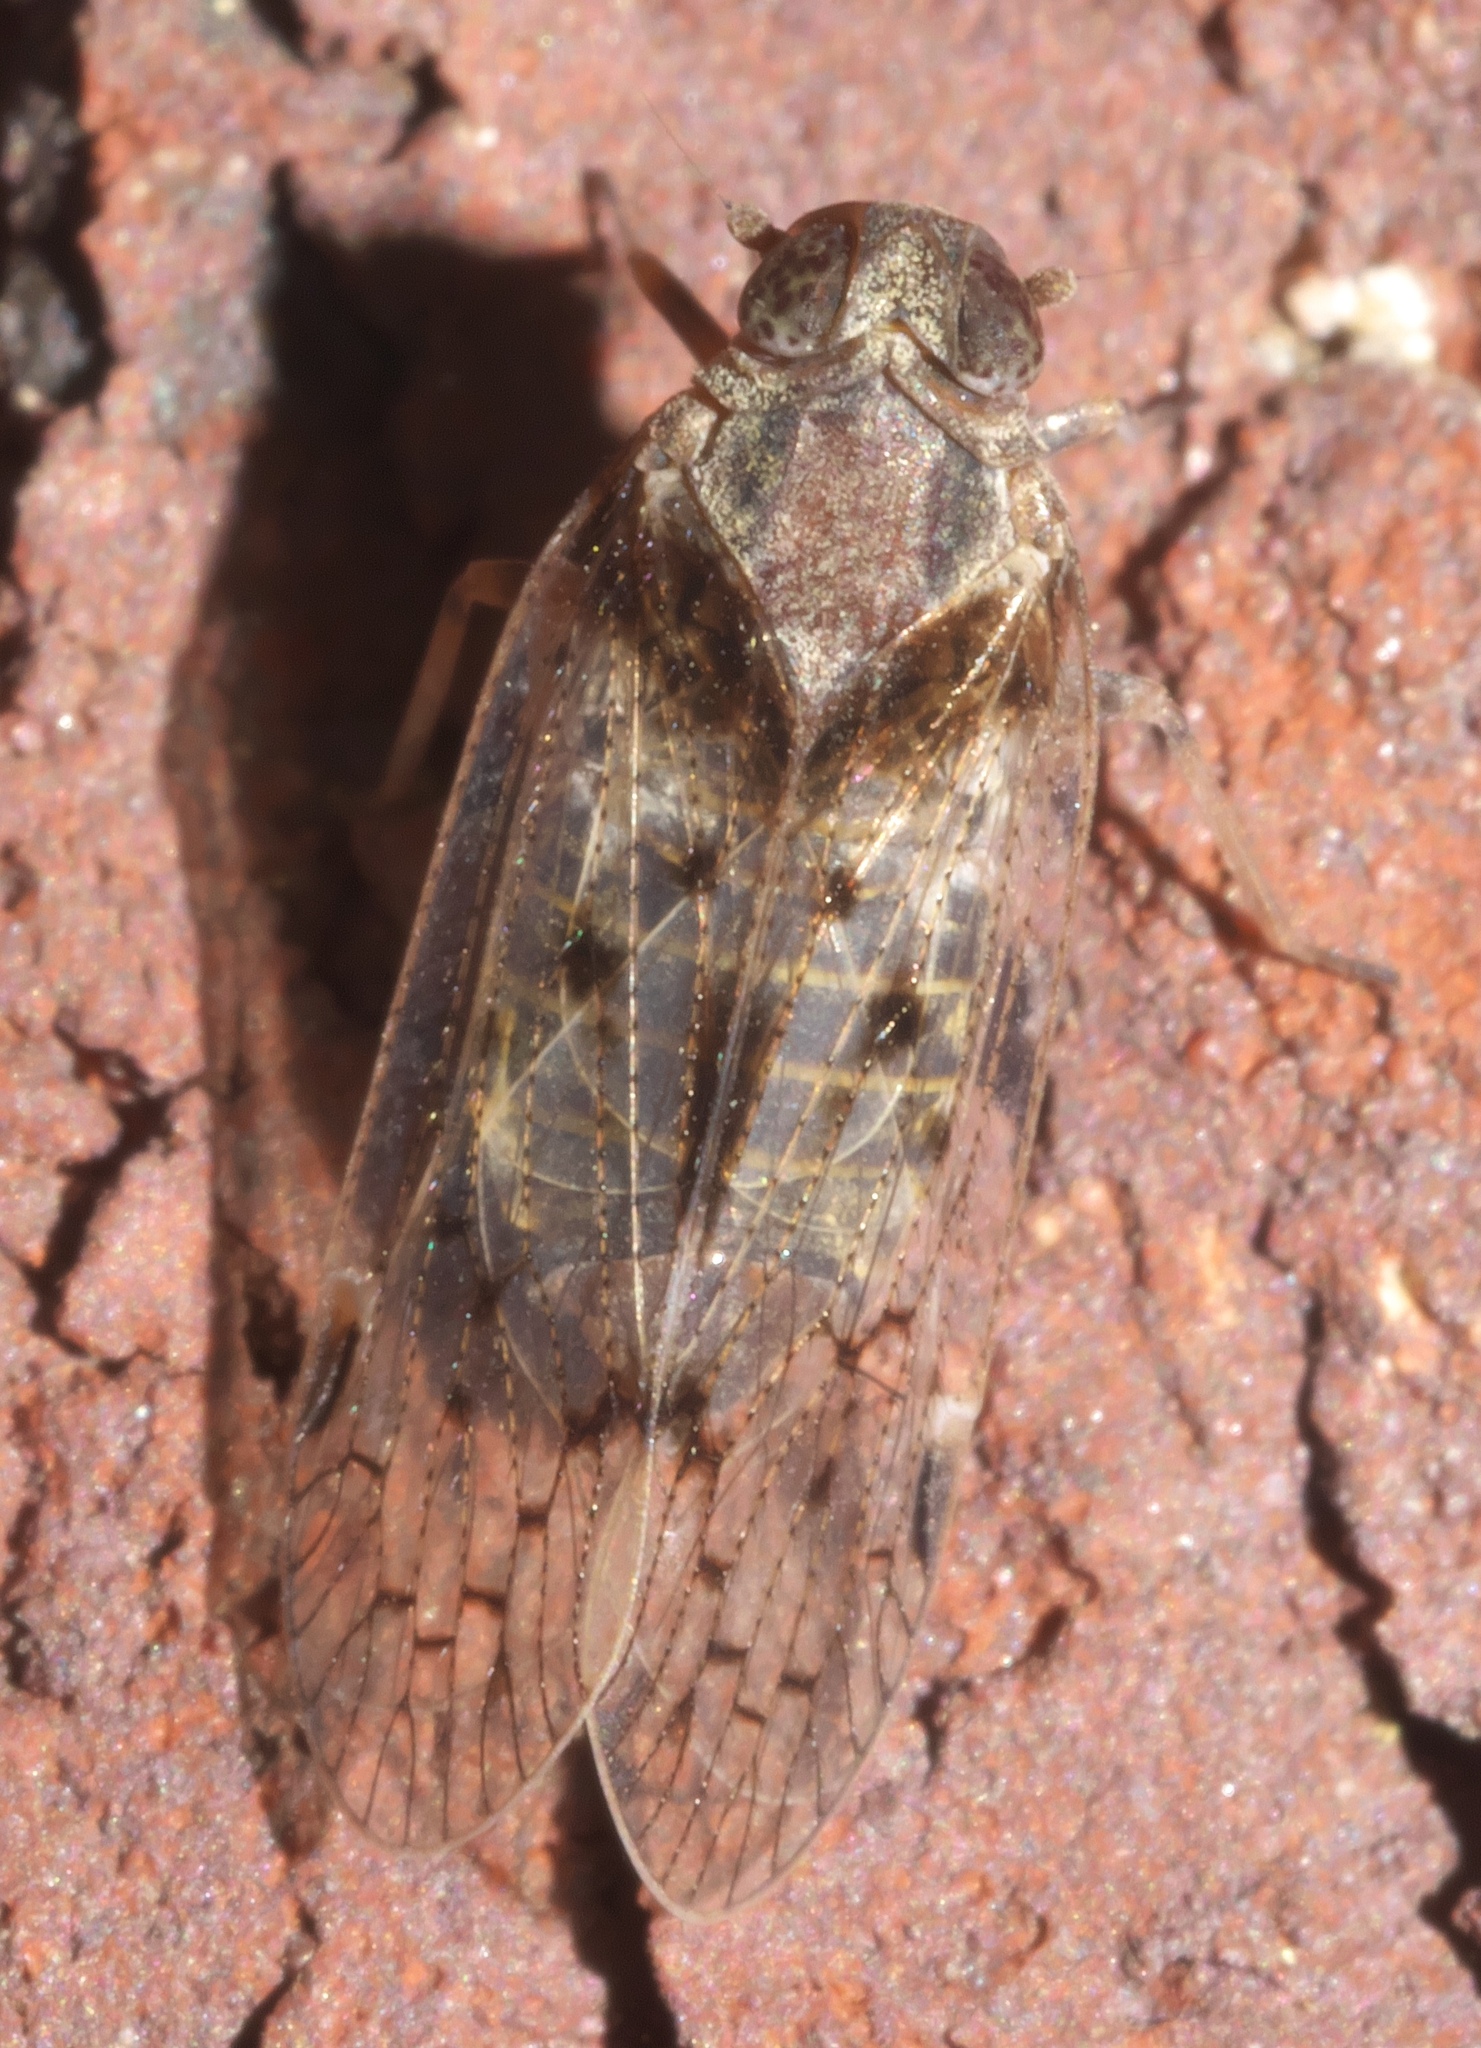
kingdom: Animalia
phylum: Arthropoda
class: Insecta
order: Hemiptera
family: Cixiidae
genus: Melanoliarus
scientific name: Melanoliarus aridus
